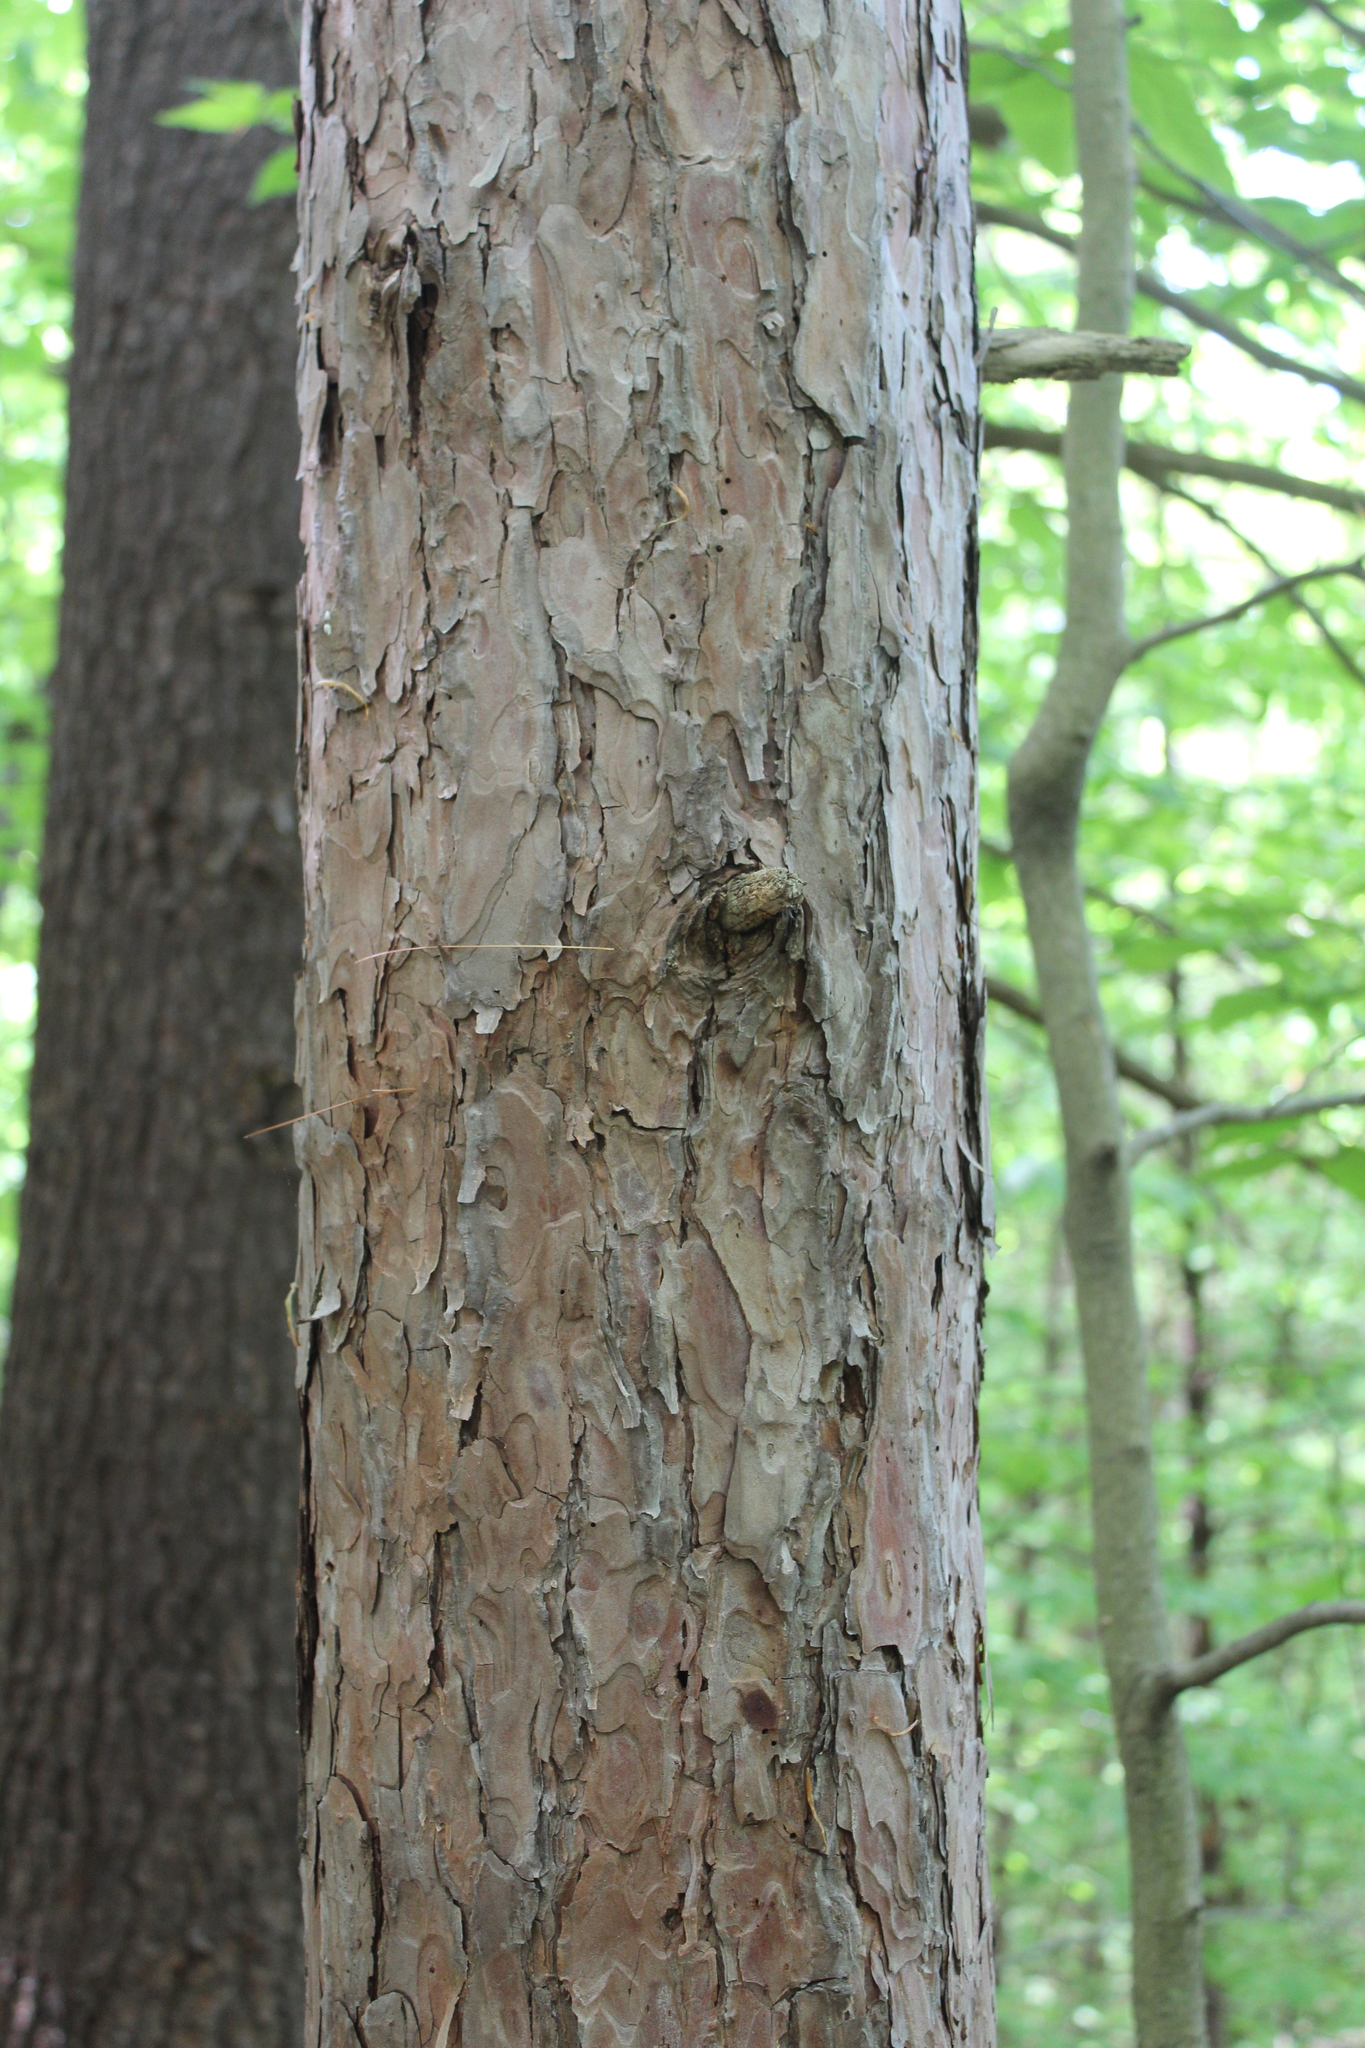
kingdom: Plantae
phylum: Tracheophyta
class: Pinopsida
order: Pinales
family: Pinaceae
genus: Pinus
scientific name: Pinus resinosa
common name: Norway pine
